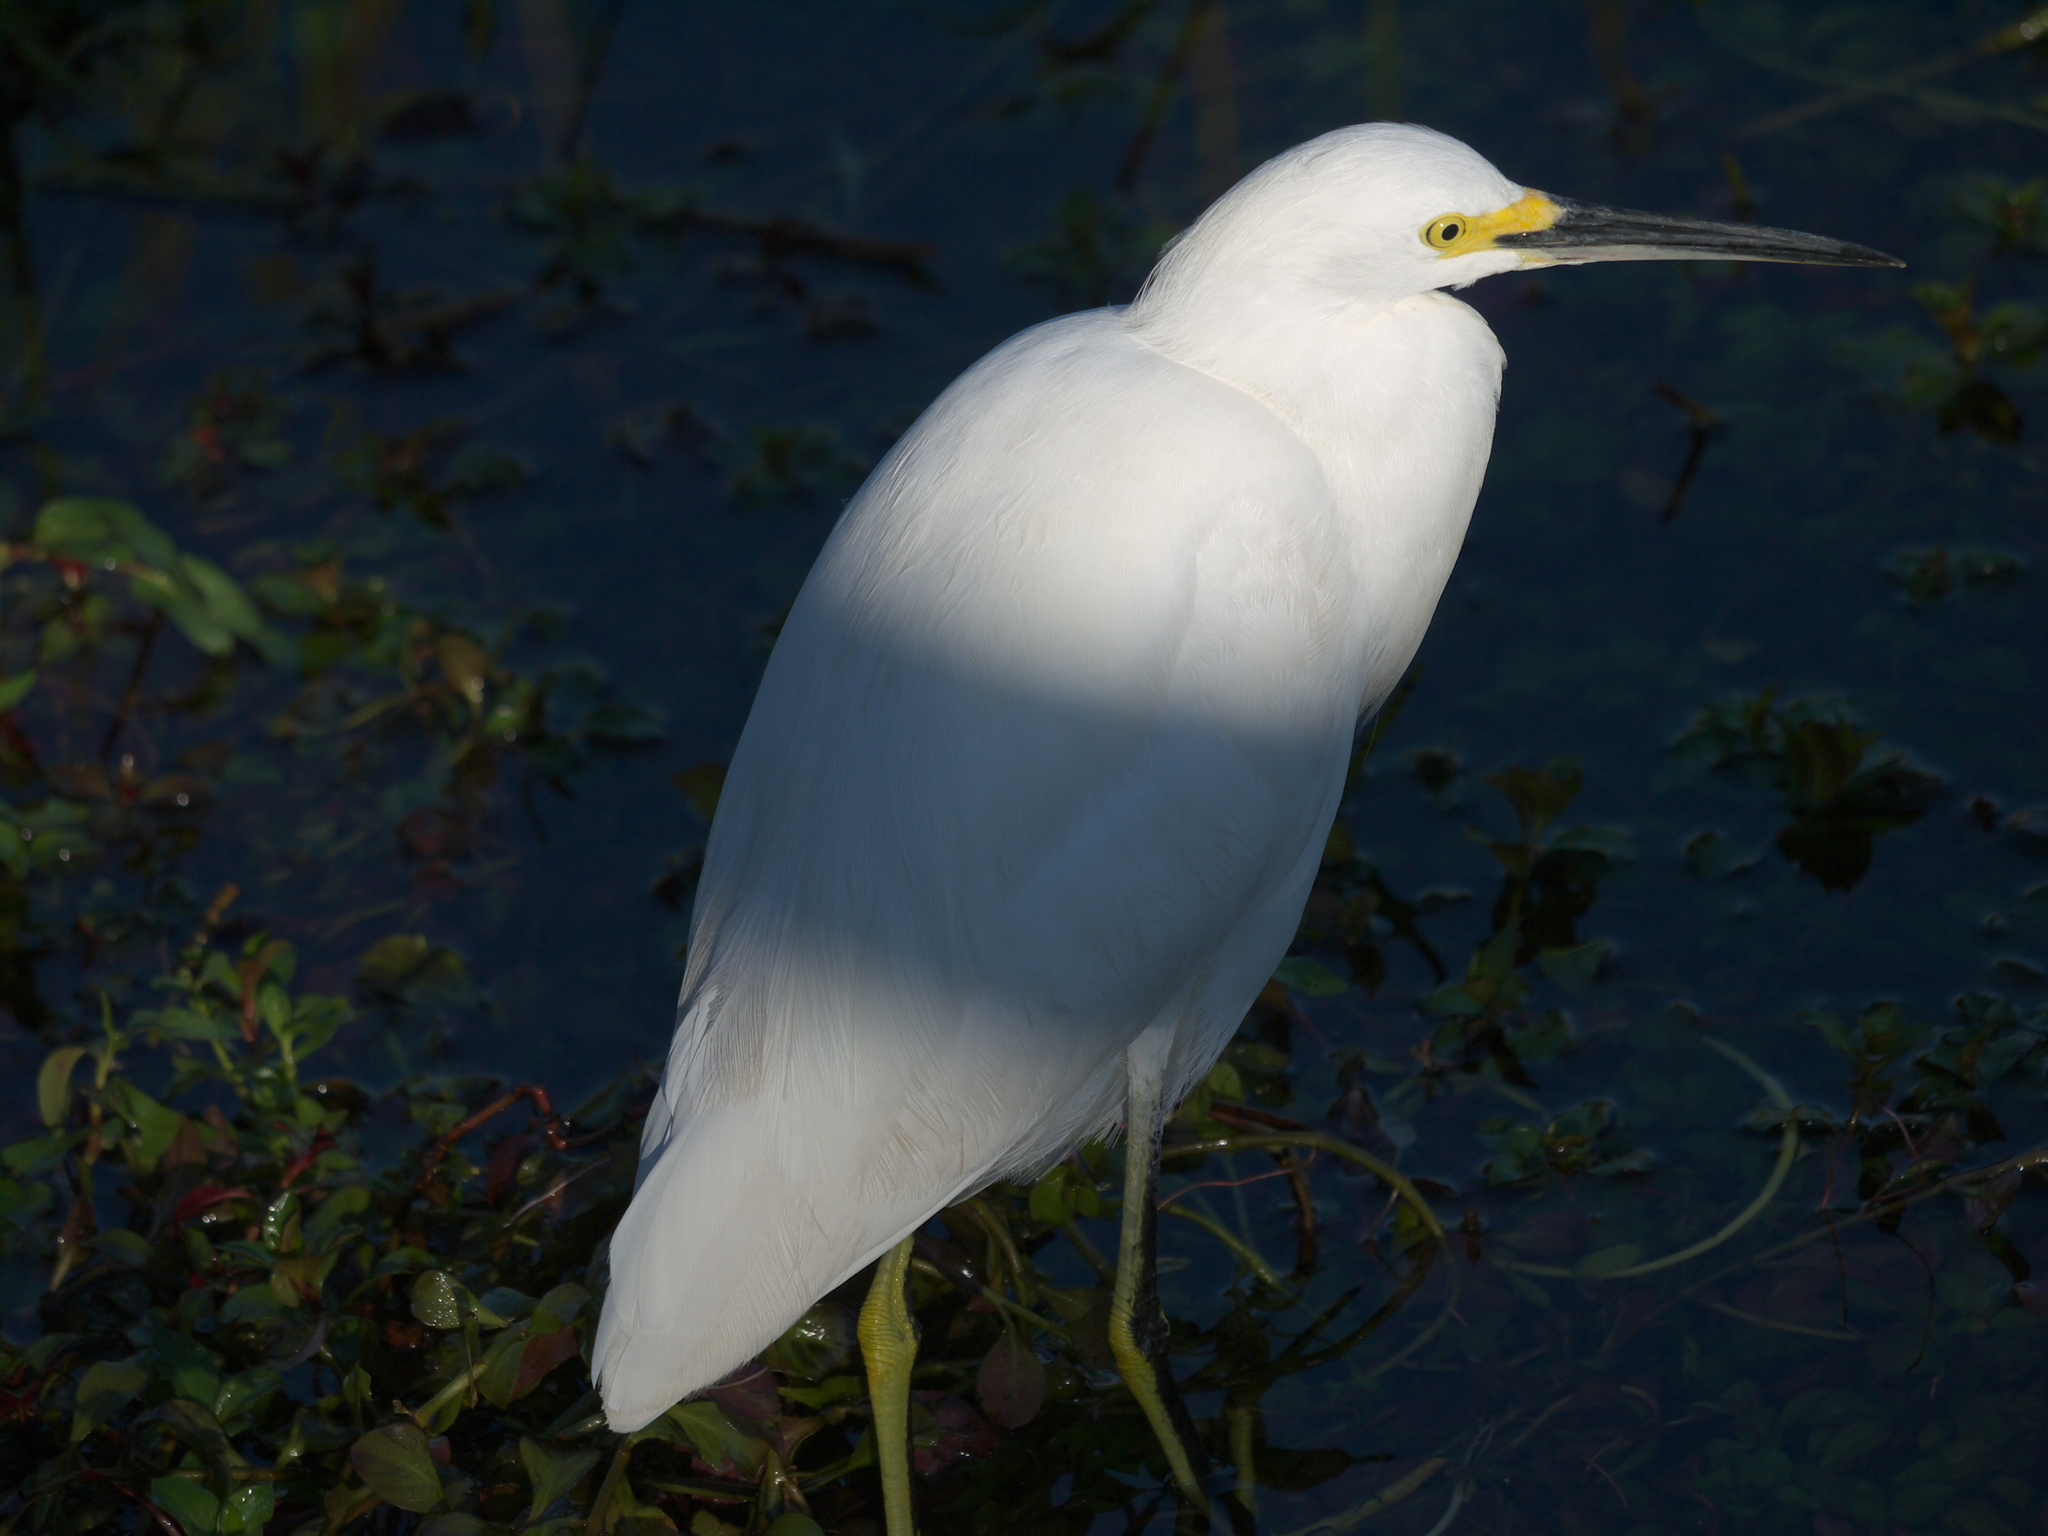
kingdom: Animalia
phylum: Chordata
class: Aves
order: Pelecaniformes
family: Ardeidae
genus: Egretta
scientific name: Egretta thula
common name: Snowy egret
